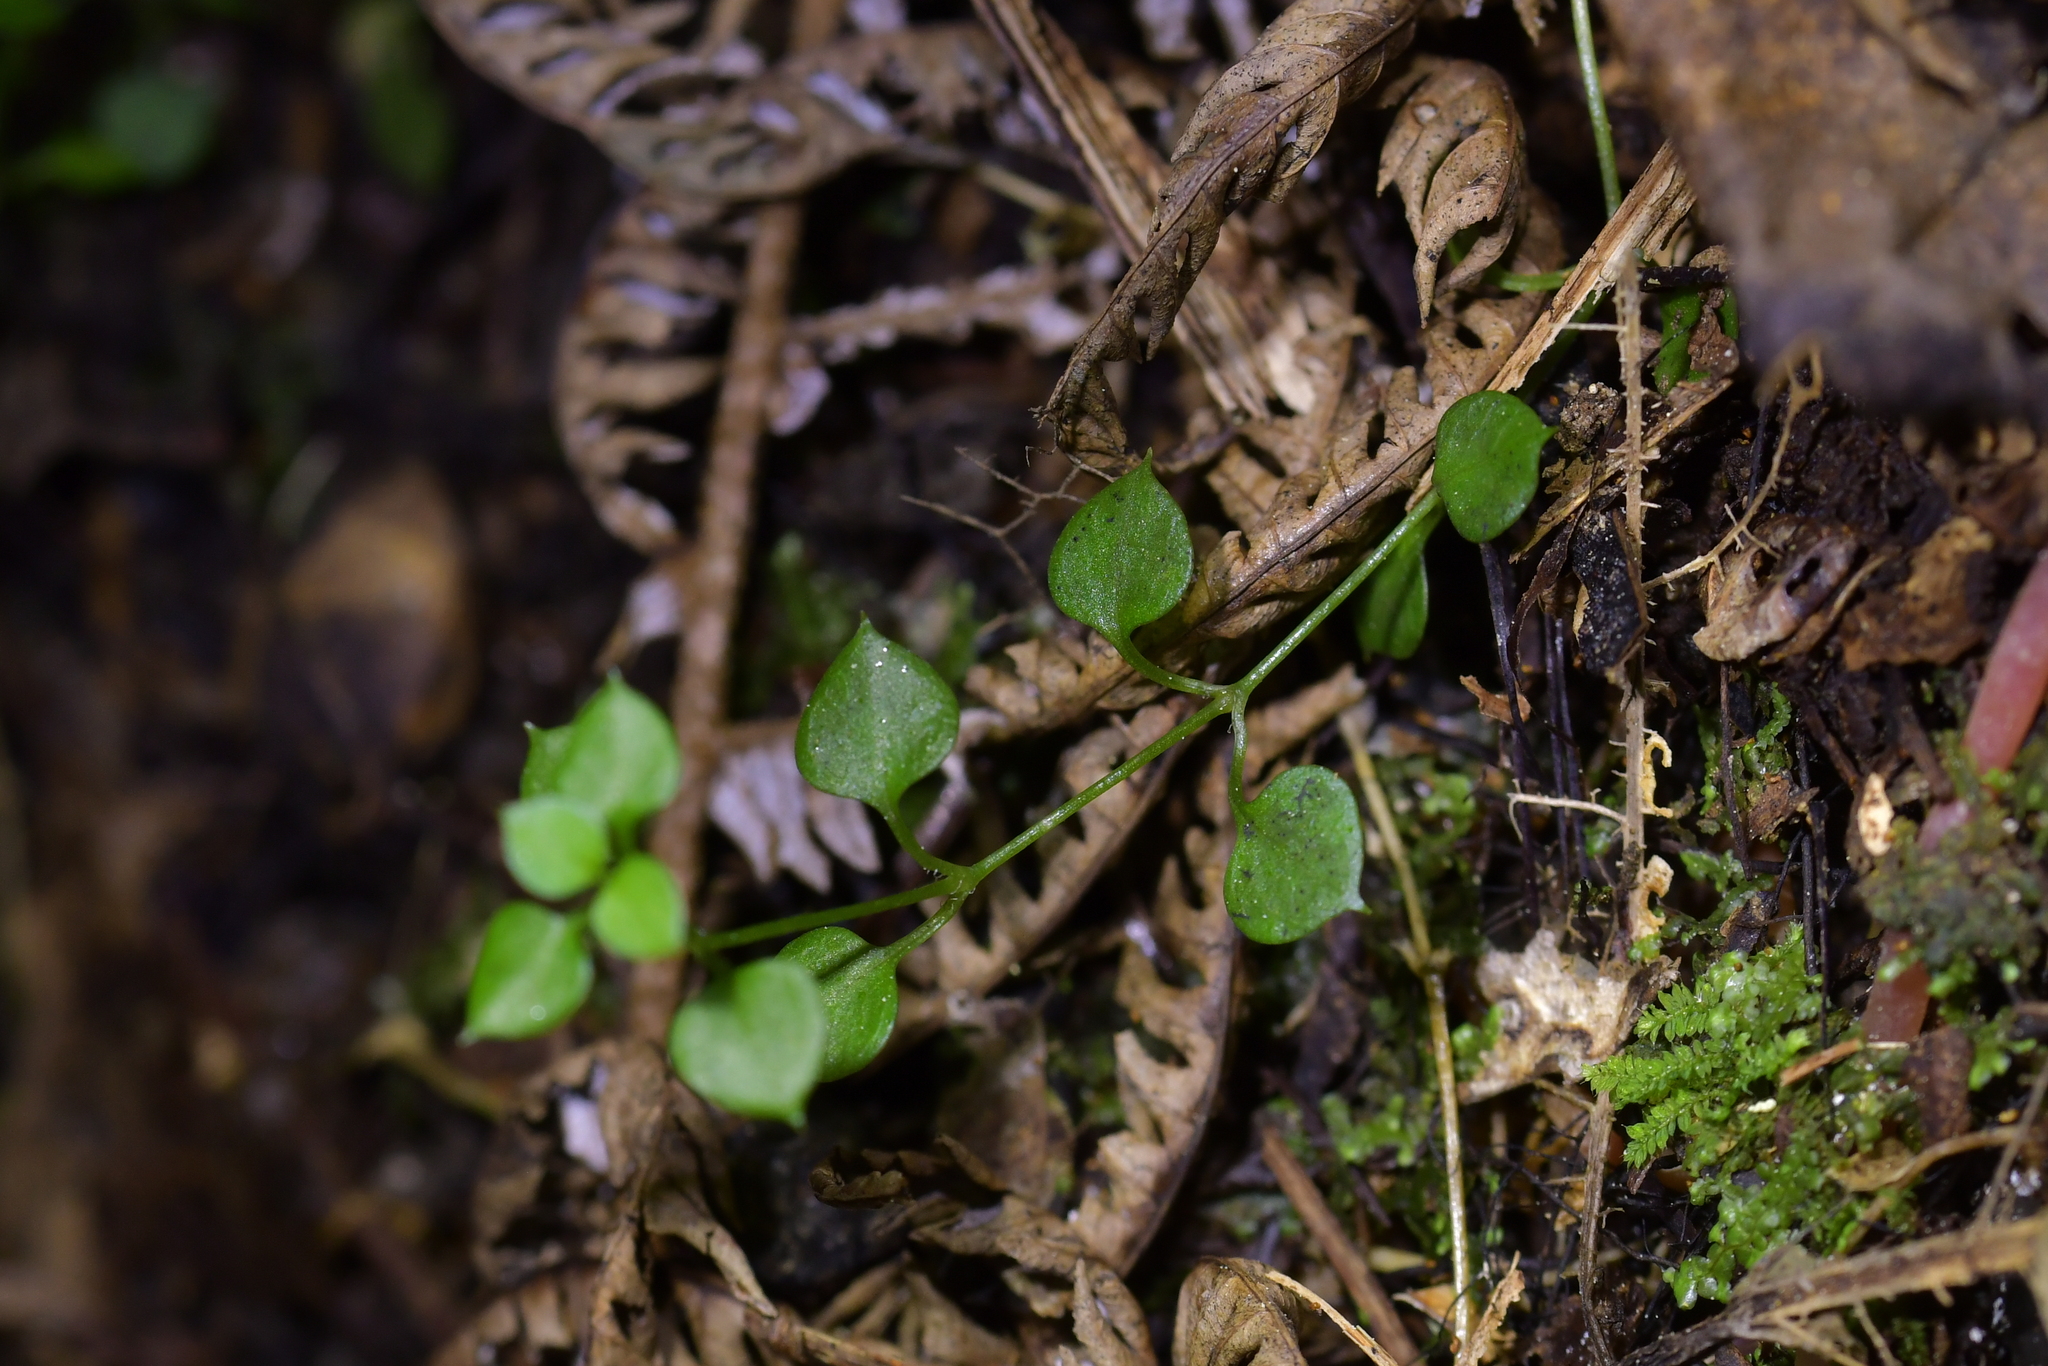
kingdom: Plantae
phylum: Tracheophyta
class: Magnoliopsida
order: Caryophyllales
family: Caryophyllaceae
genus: Stellaria
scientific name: Stellaria parviflora
